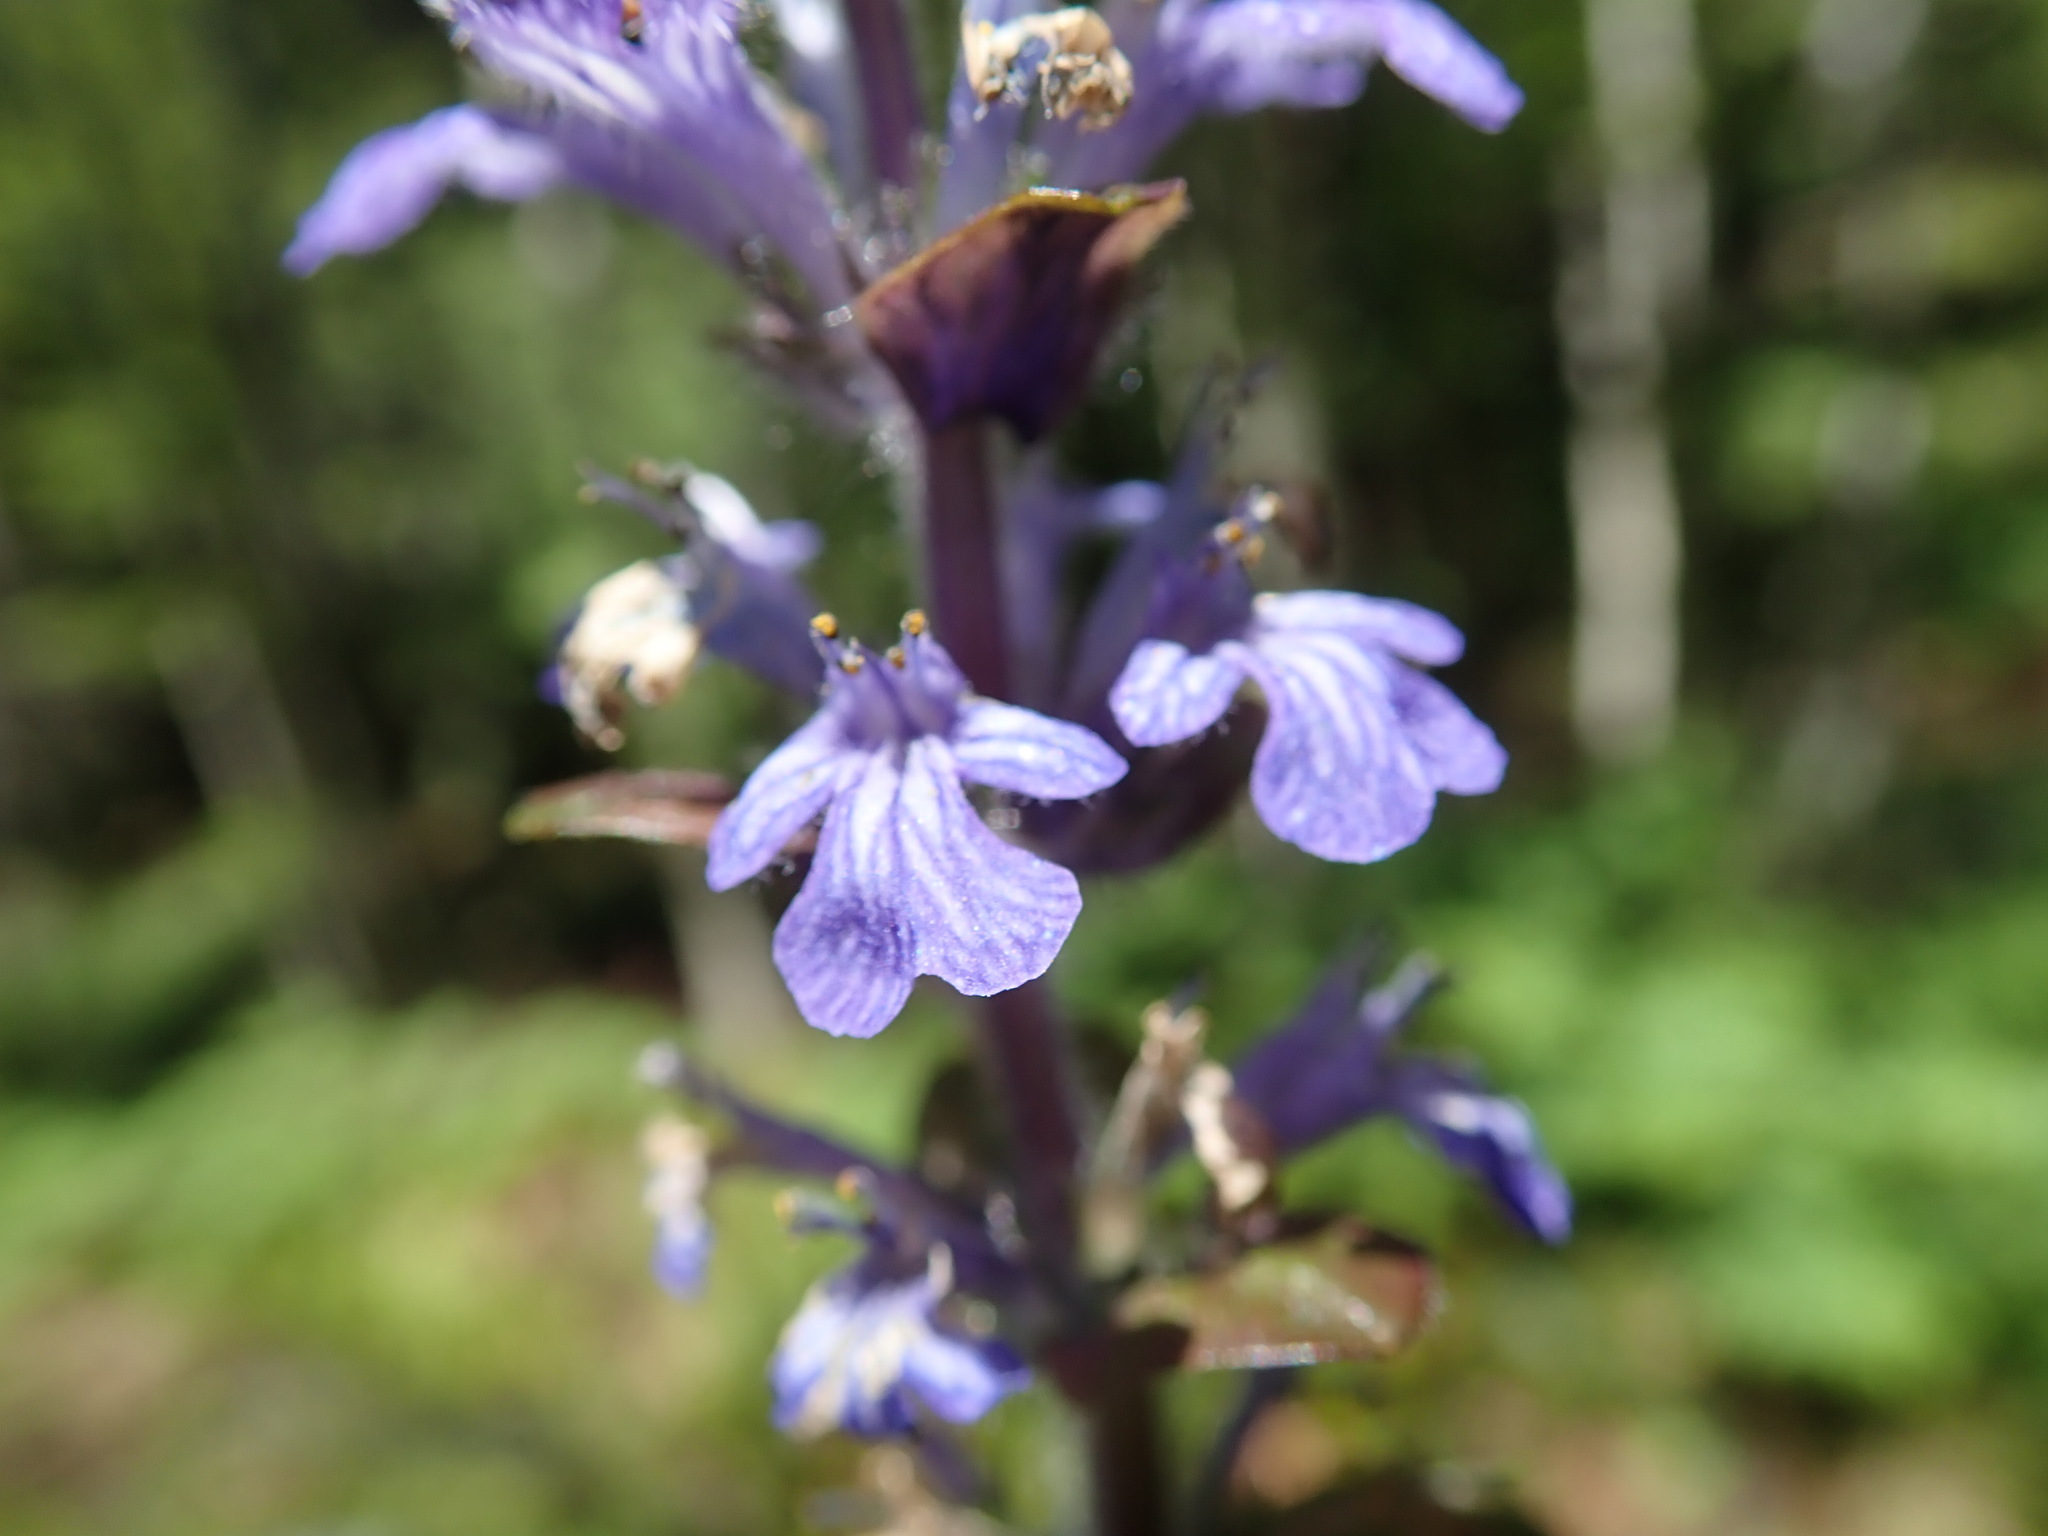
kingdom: Plantae
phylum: Tracheophyta
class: Magnoliopsida
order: Lamiales
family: Lamiaceae
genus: Ajuga
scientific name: Ajuga reptans
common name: Bugle
